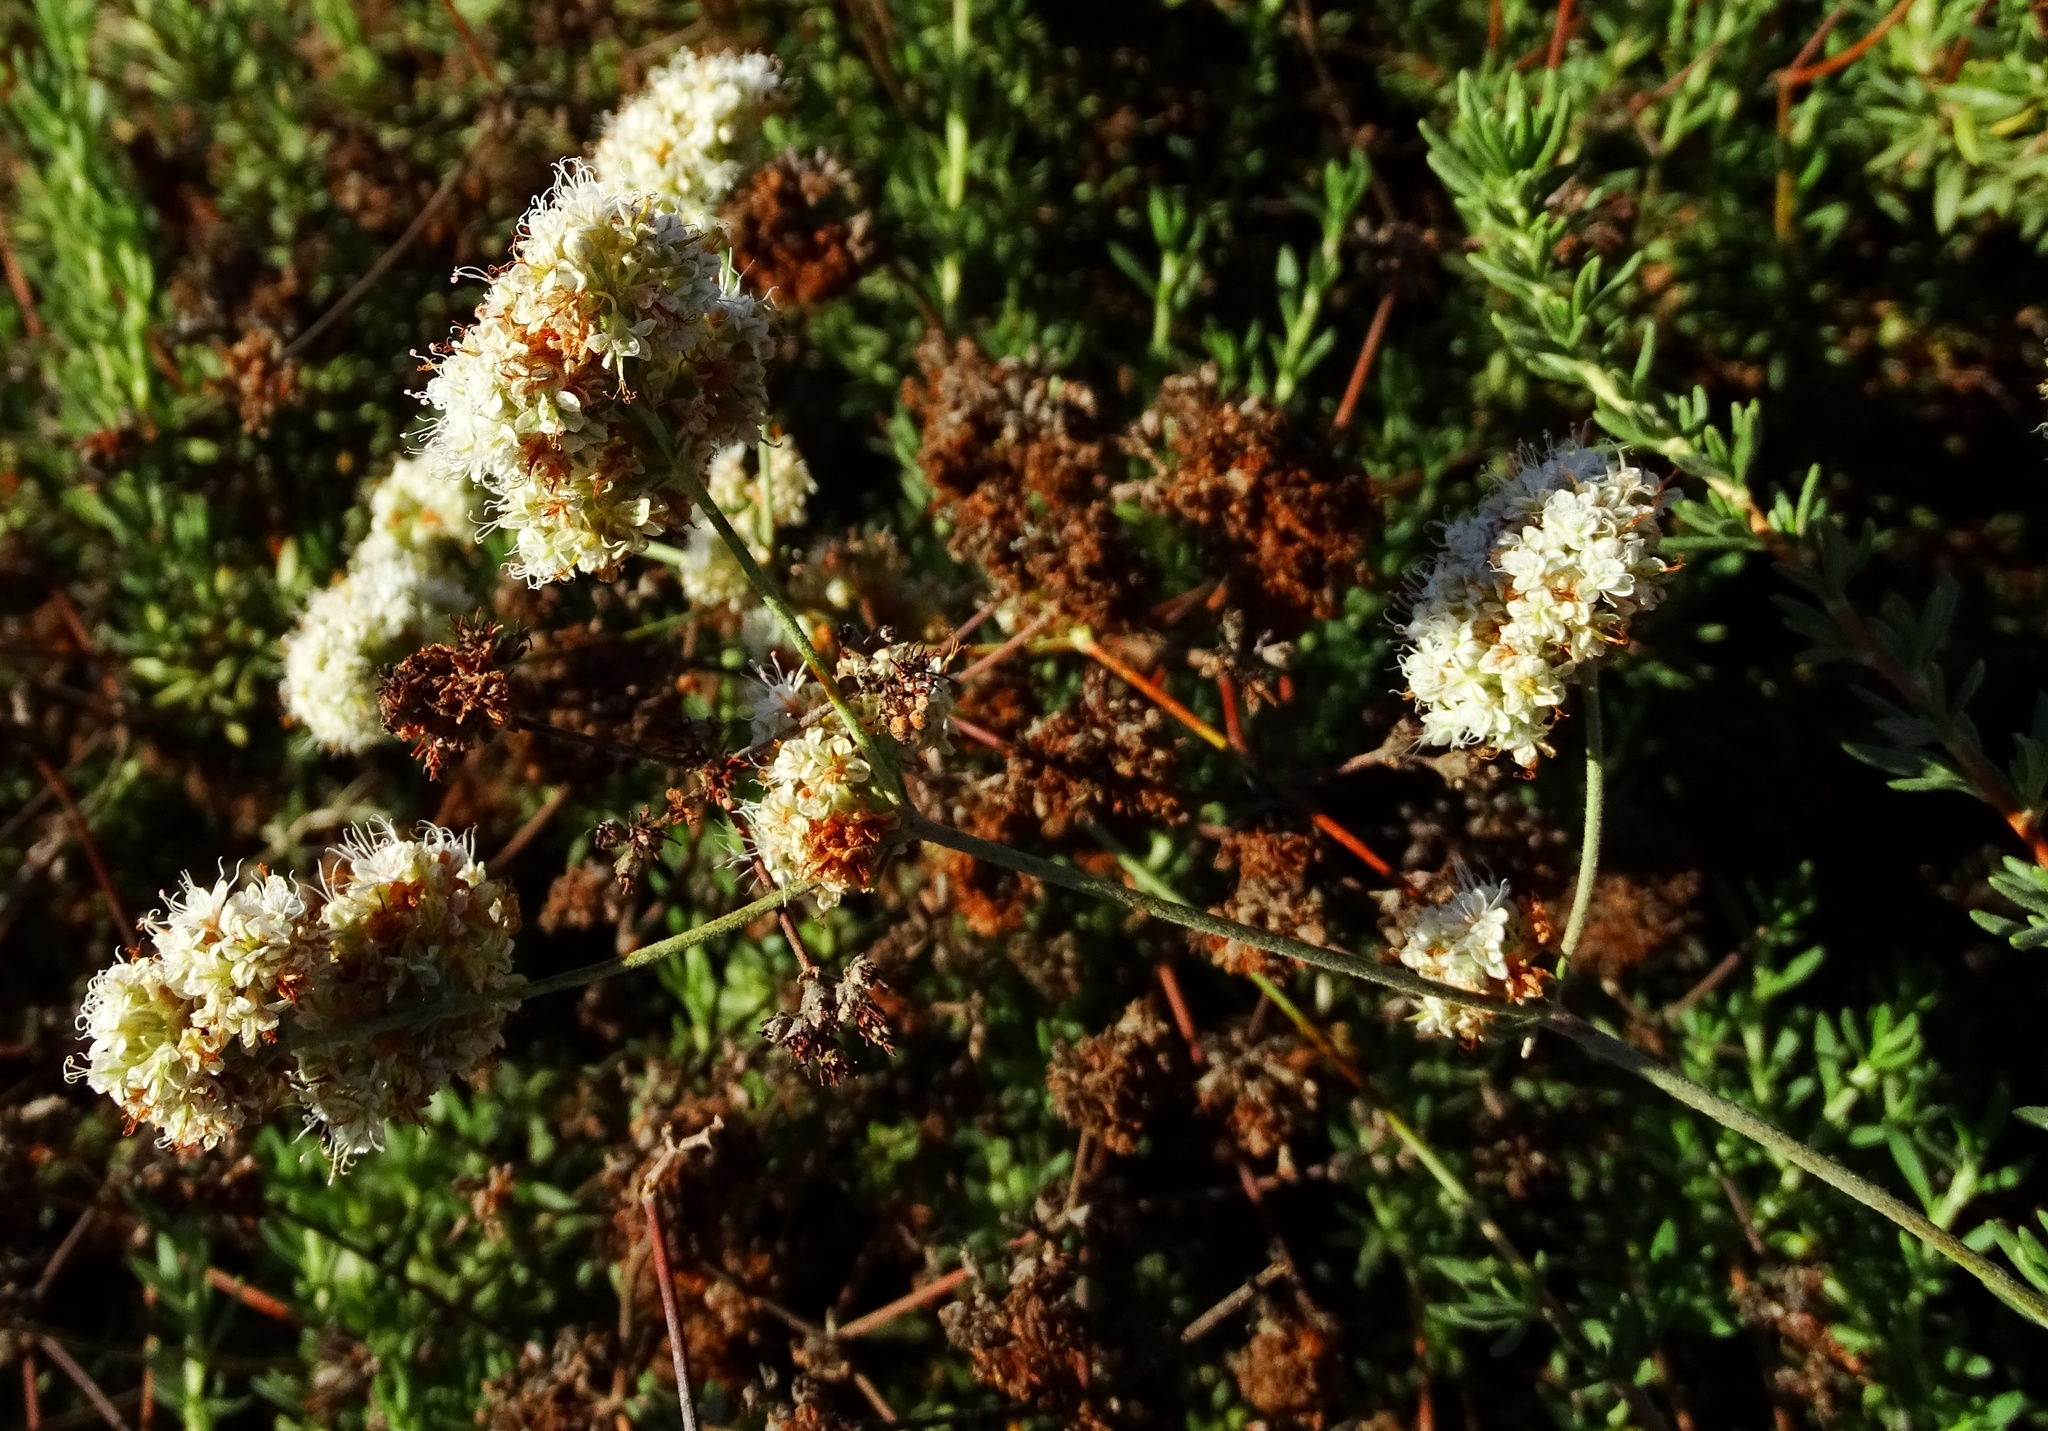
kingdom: Plantae
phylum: Tracheophyta
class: Magnoliopsida
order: Caryophyllales
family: Polygonaceae
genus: Eriogonum
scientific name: Eriogonum fasciculatum
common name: California wild buckwheat
